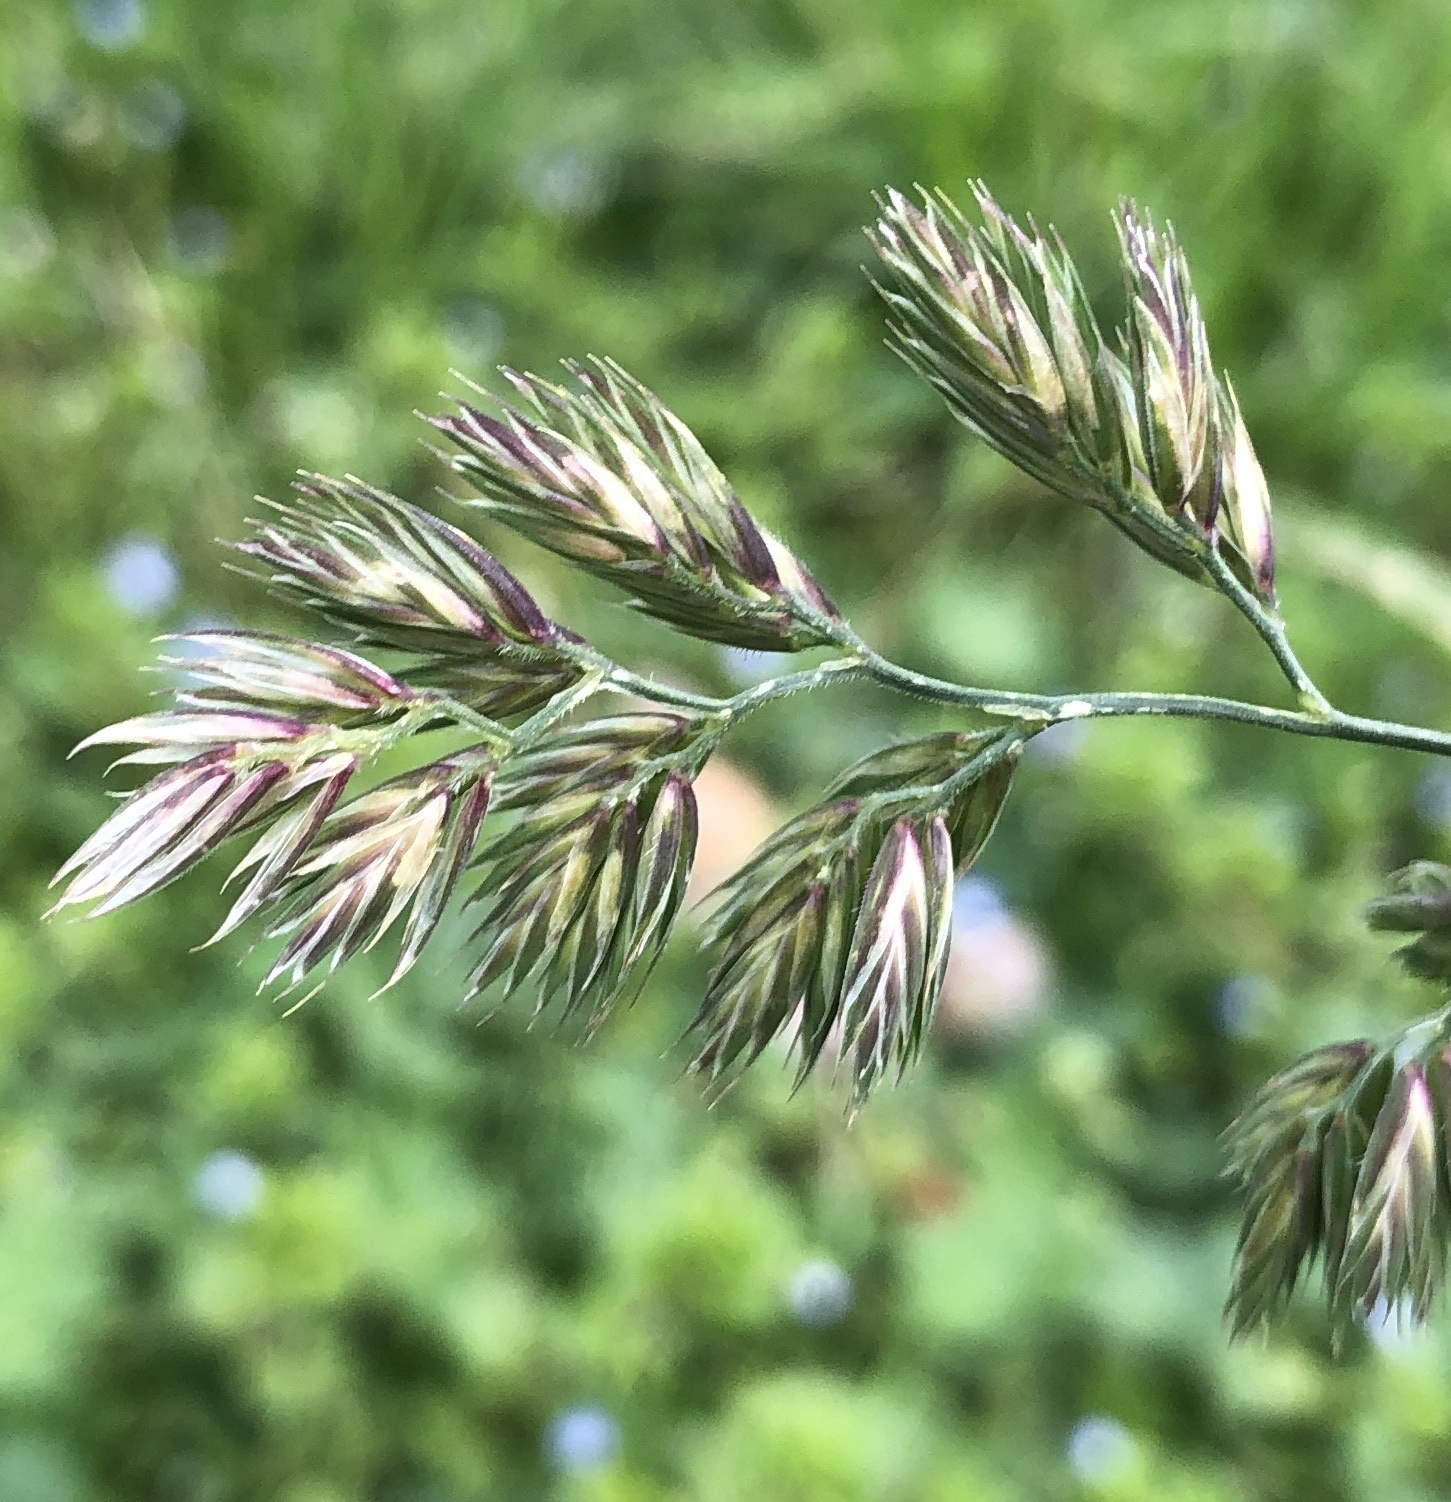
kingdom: Plantae
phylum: Tracheophyta
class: Liliopsida
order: Poales
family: Poaceae
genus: Dactylis
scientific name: Dactylis glomerata
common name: Orchardgrass
